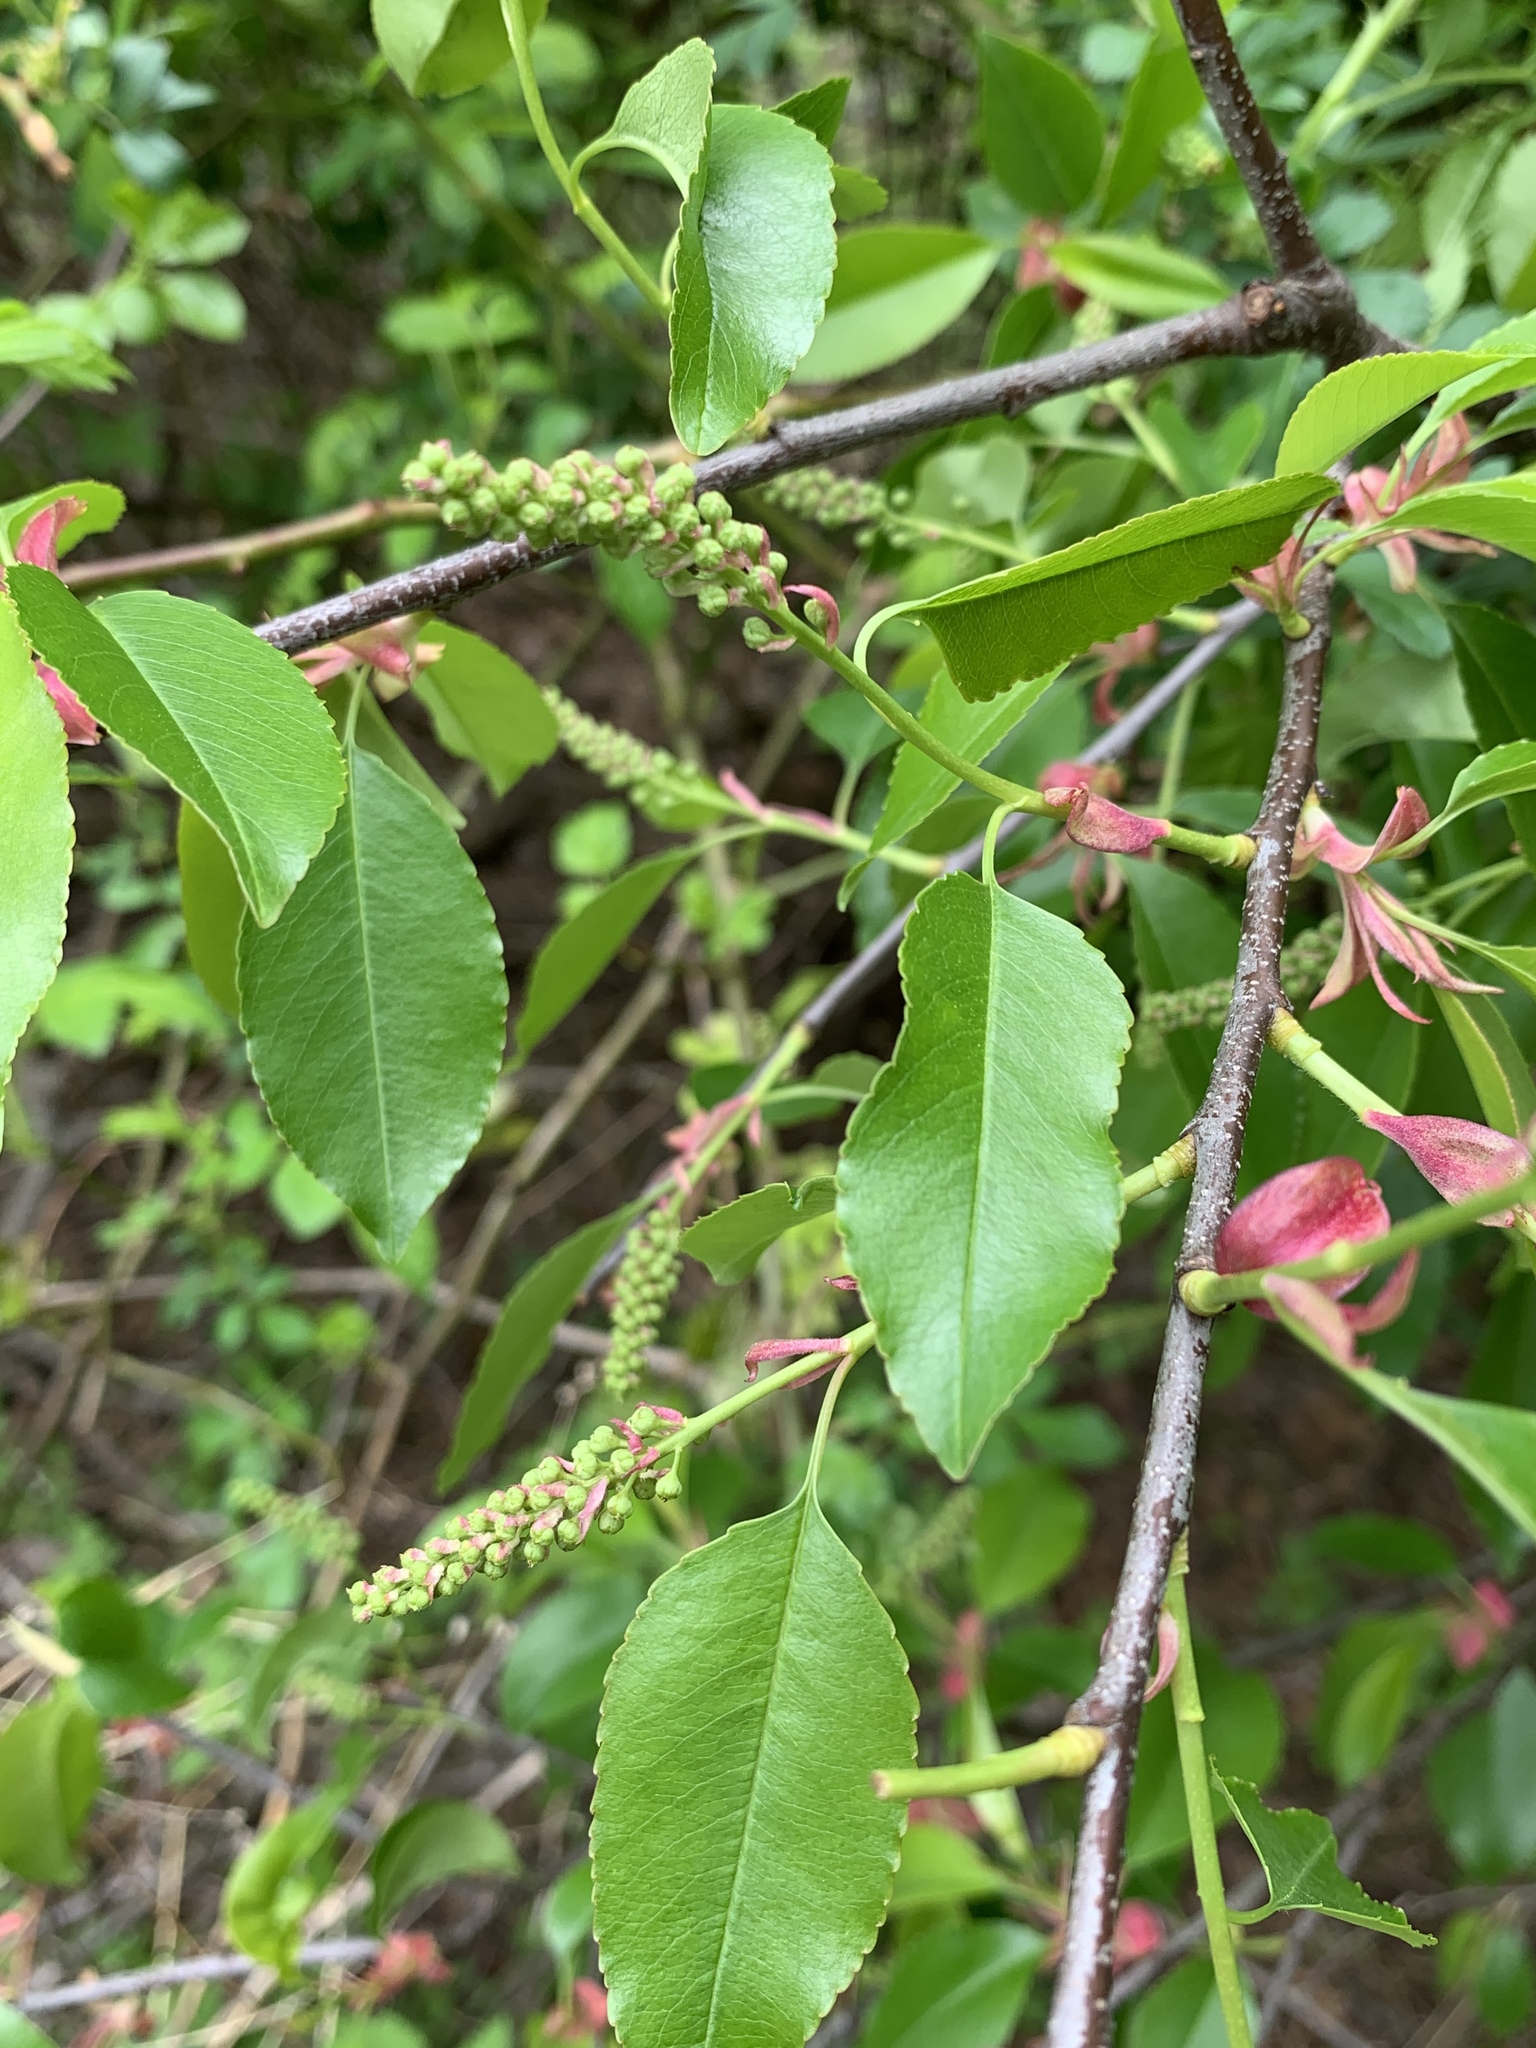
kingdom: Plantae
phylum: Tracheophyta
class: Magnoliopsida
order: Rosales
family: Rosaceae
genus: Prunus
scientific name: Prunus serotina
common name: Black cherry
